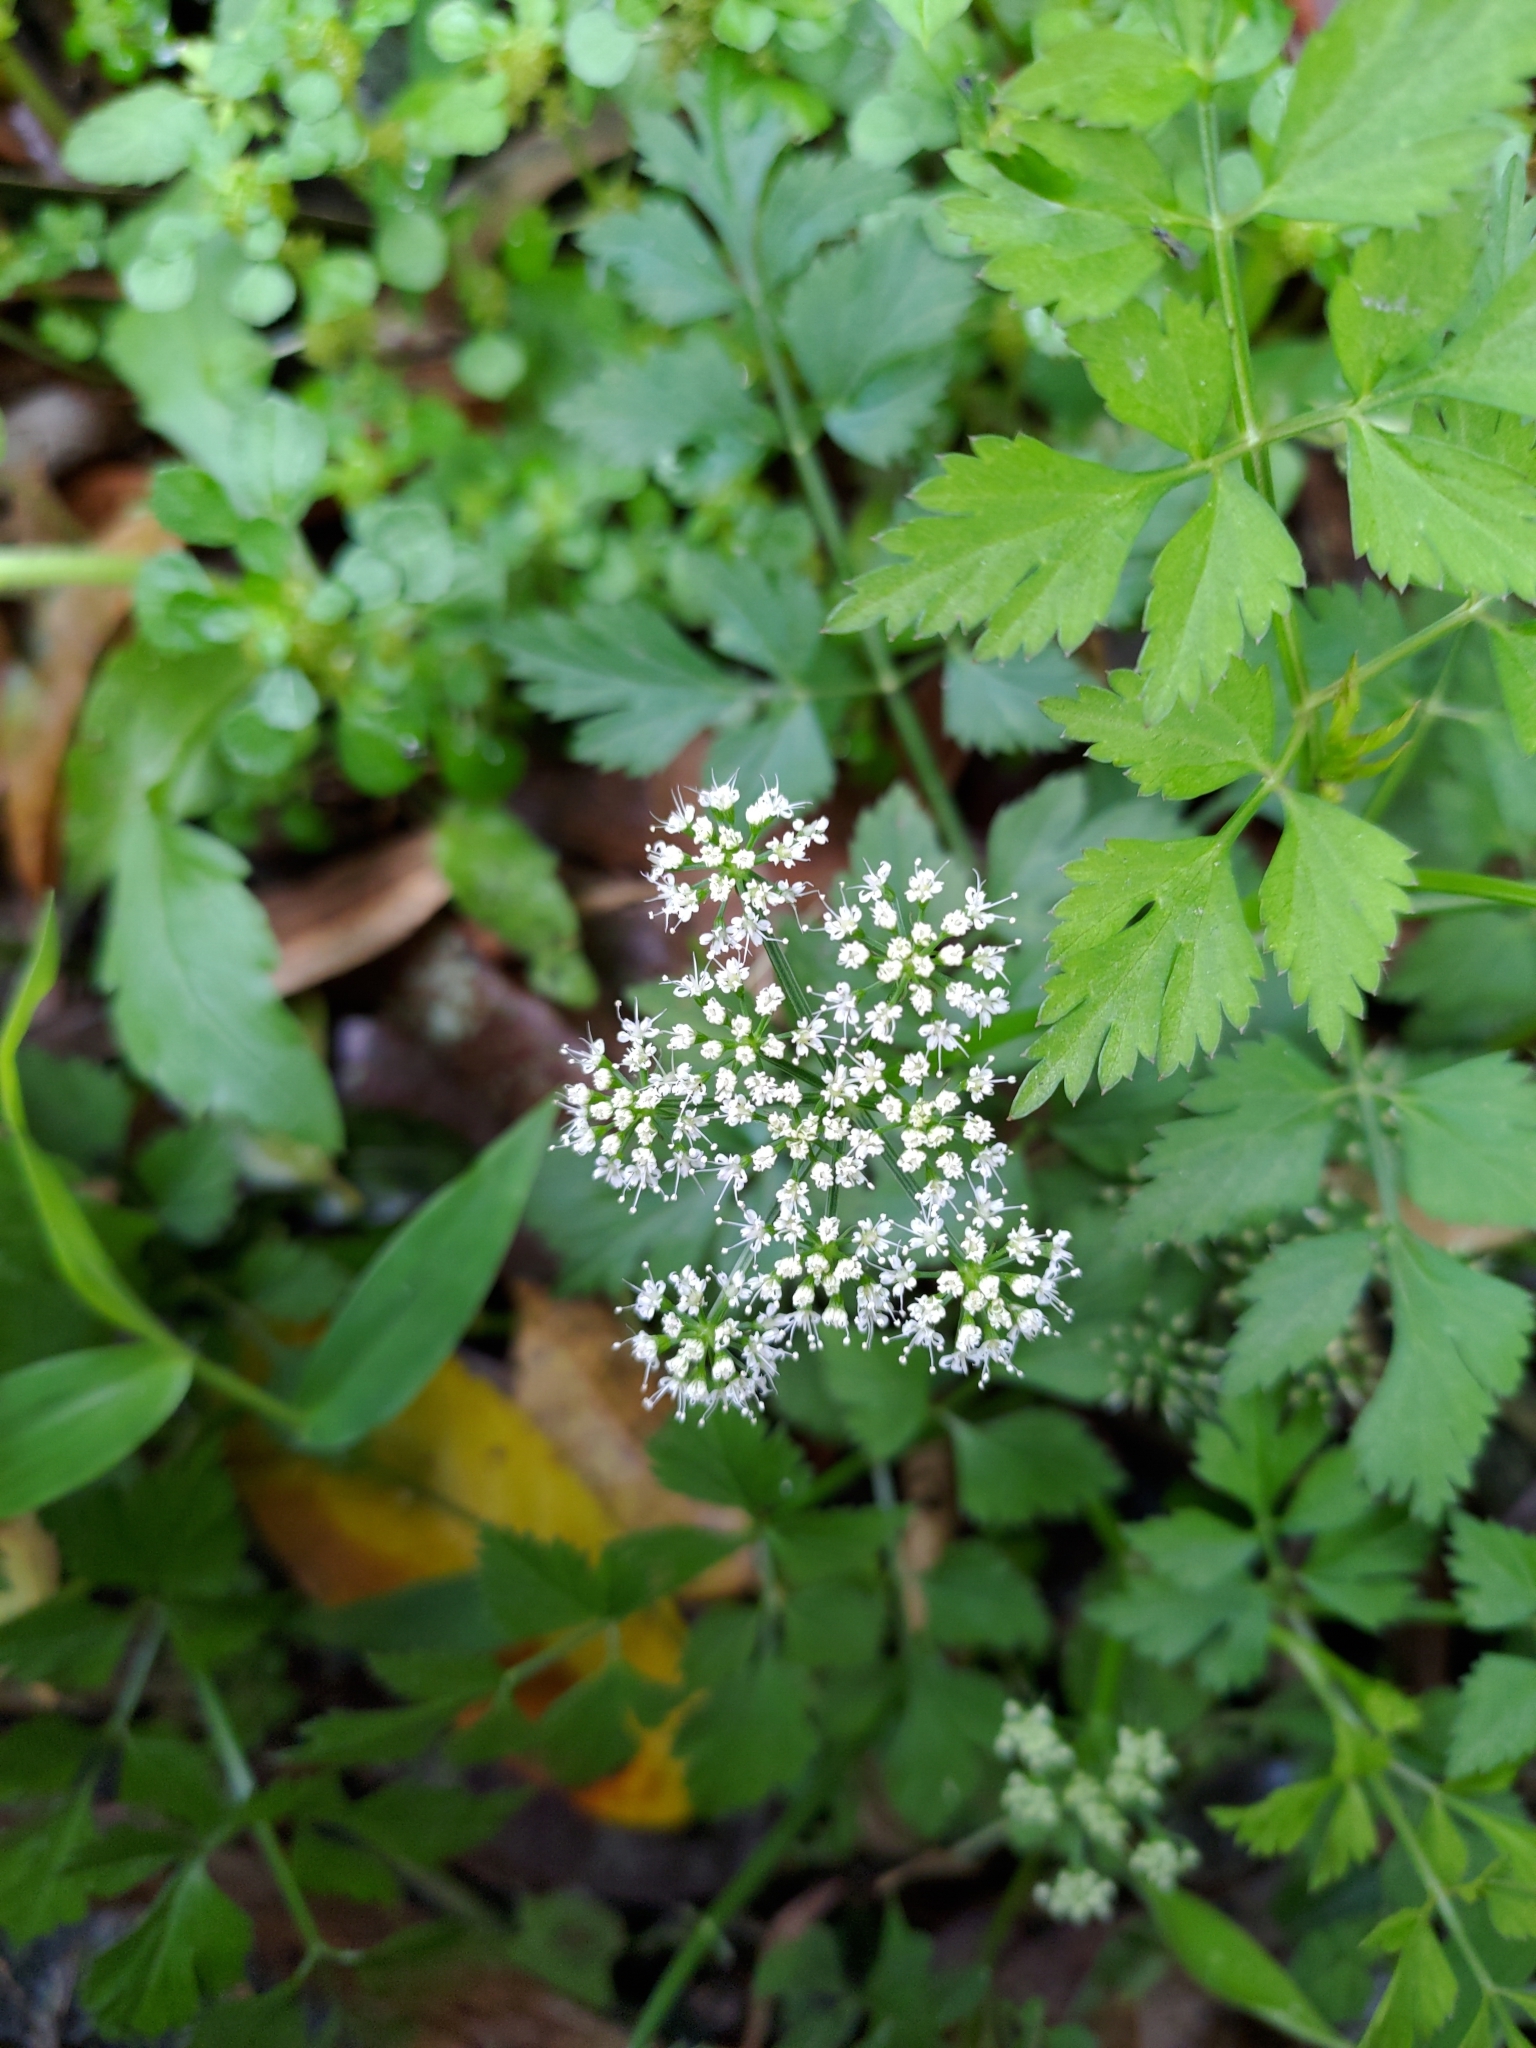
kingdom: Plantae
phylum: Tracheophyta
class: Magnoliopsida
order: Apiales
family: Apiaceae
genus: Oenanthe
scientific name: Oenanthe javanica
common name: Java water-dropwort
